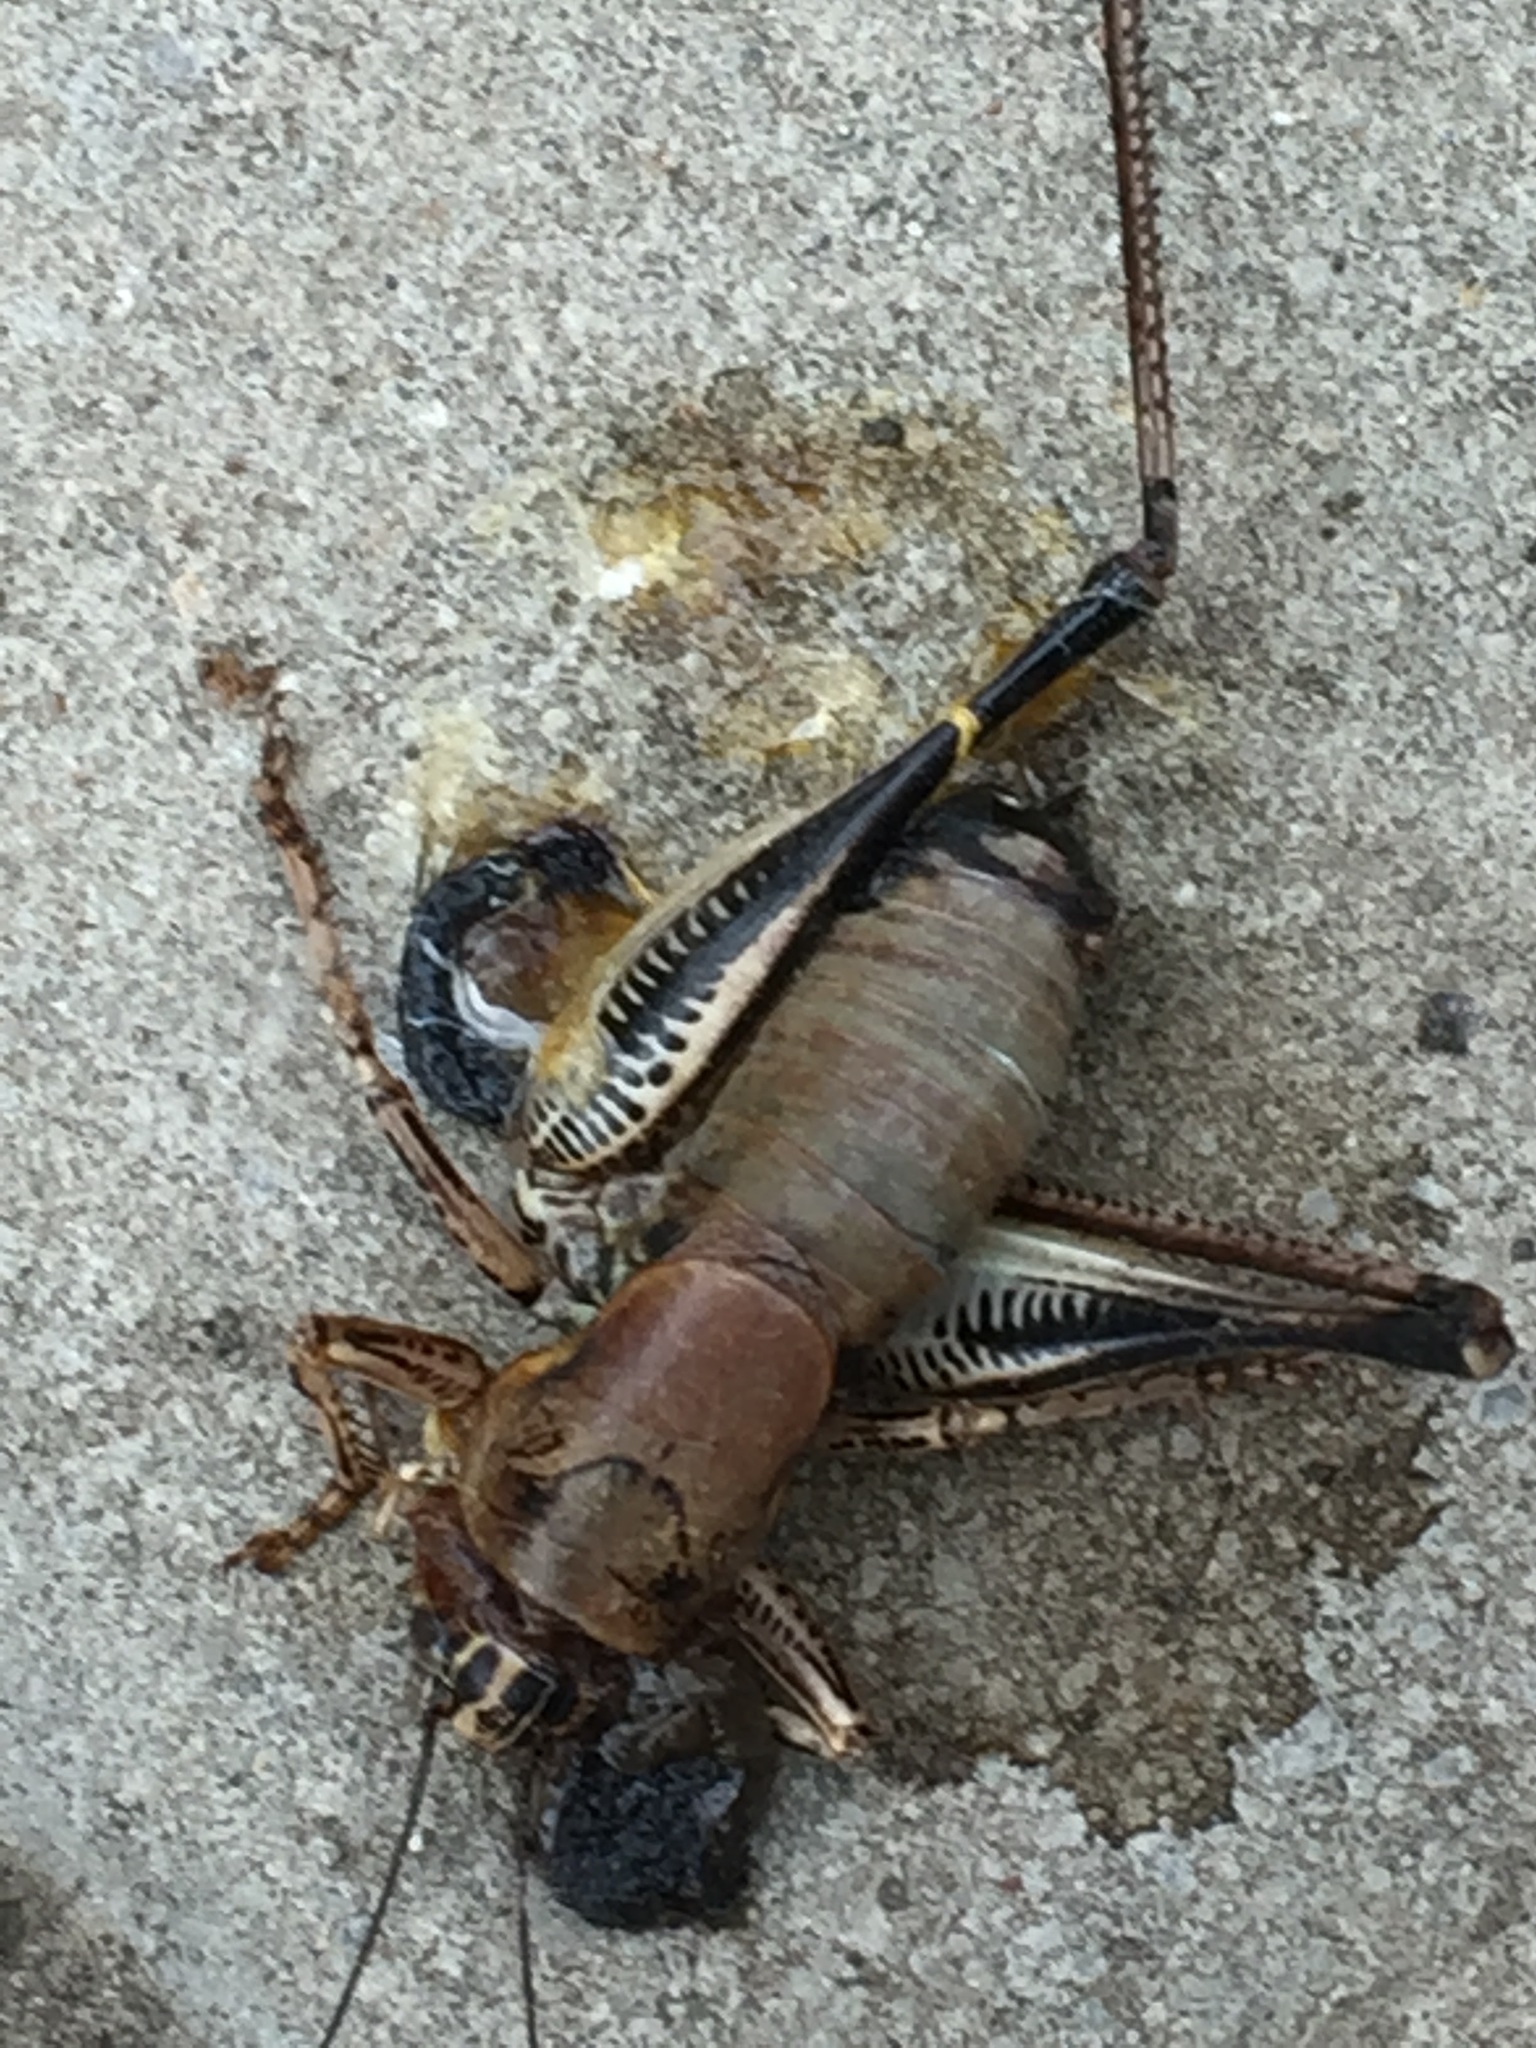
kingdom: Animalia
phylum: Arthropoda
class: Insecta
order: Orthoptera
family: Tettigoniidae
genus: Uvarovistia
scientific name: Uvarovistia satunini
